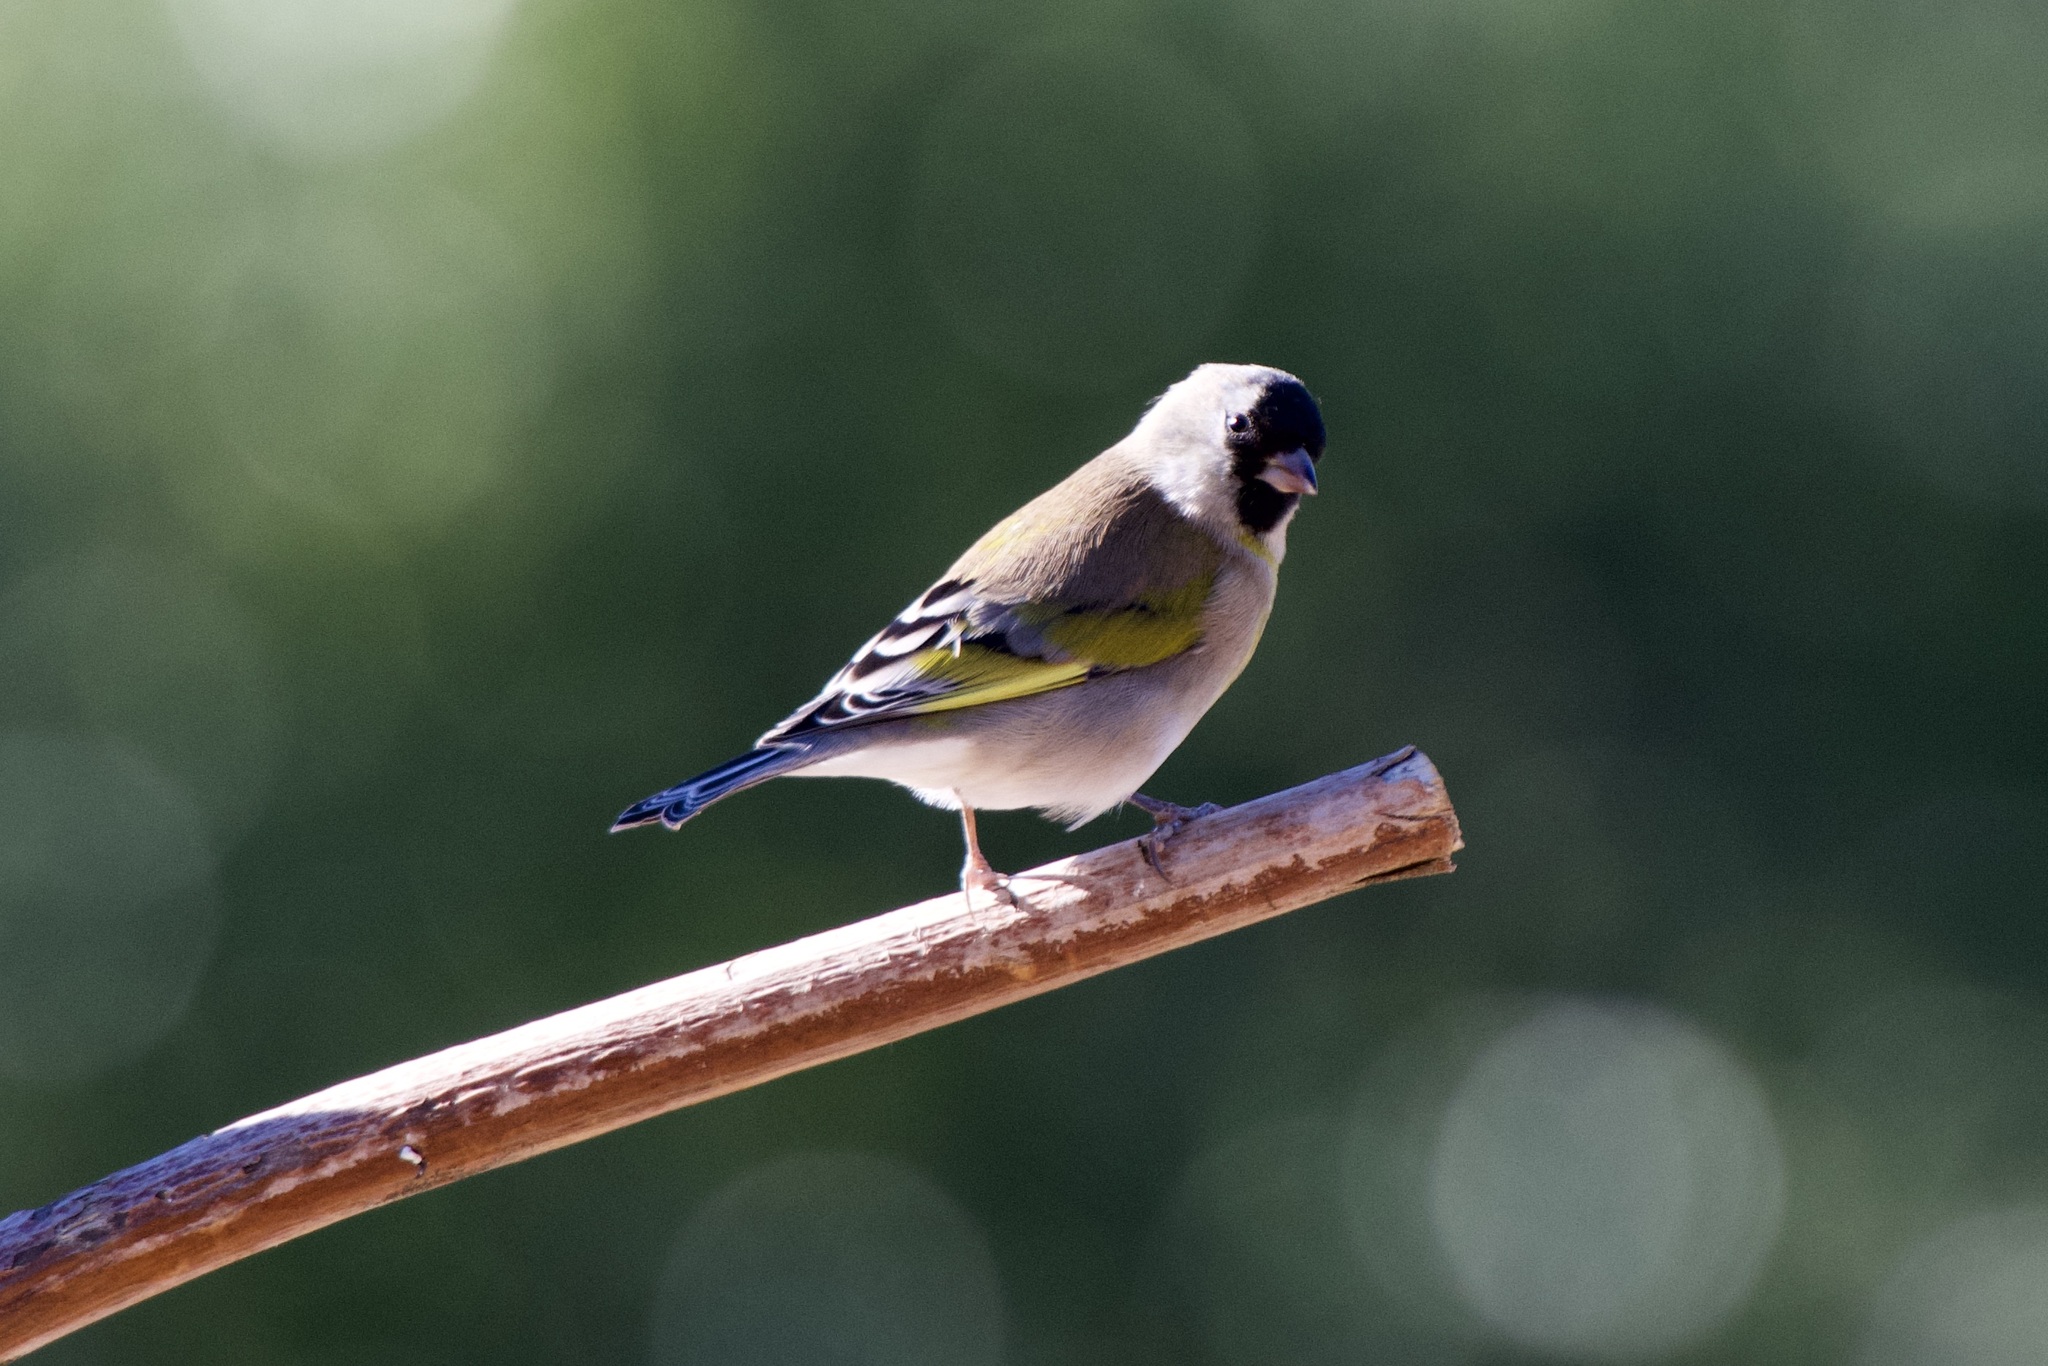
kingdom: Animalia
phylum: Chordata
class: Aves
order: Passeriformes
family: Fringillidae
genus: Spinus
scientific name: Spinus lawrencei
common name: Lawrence's goldfinch
